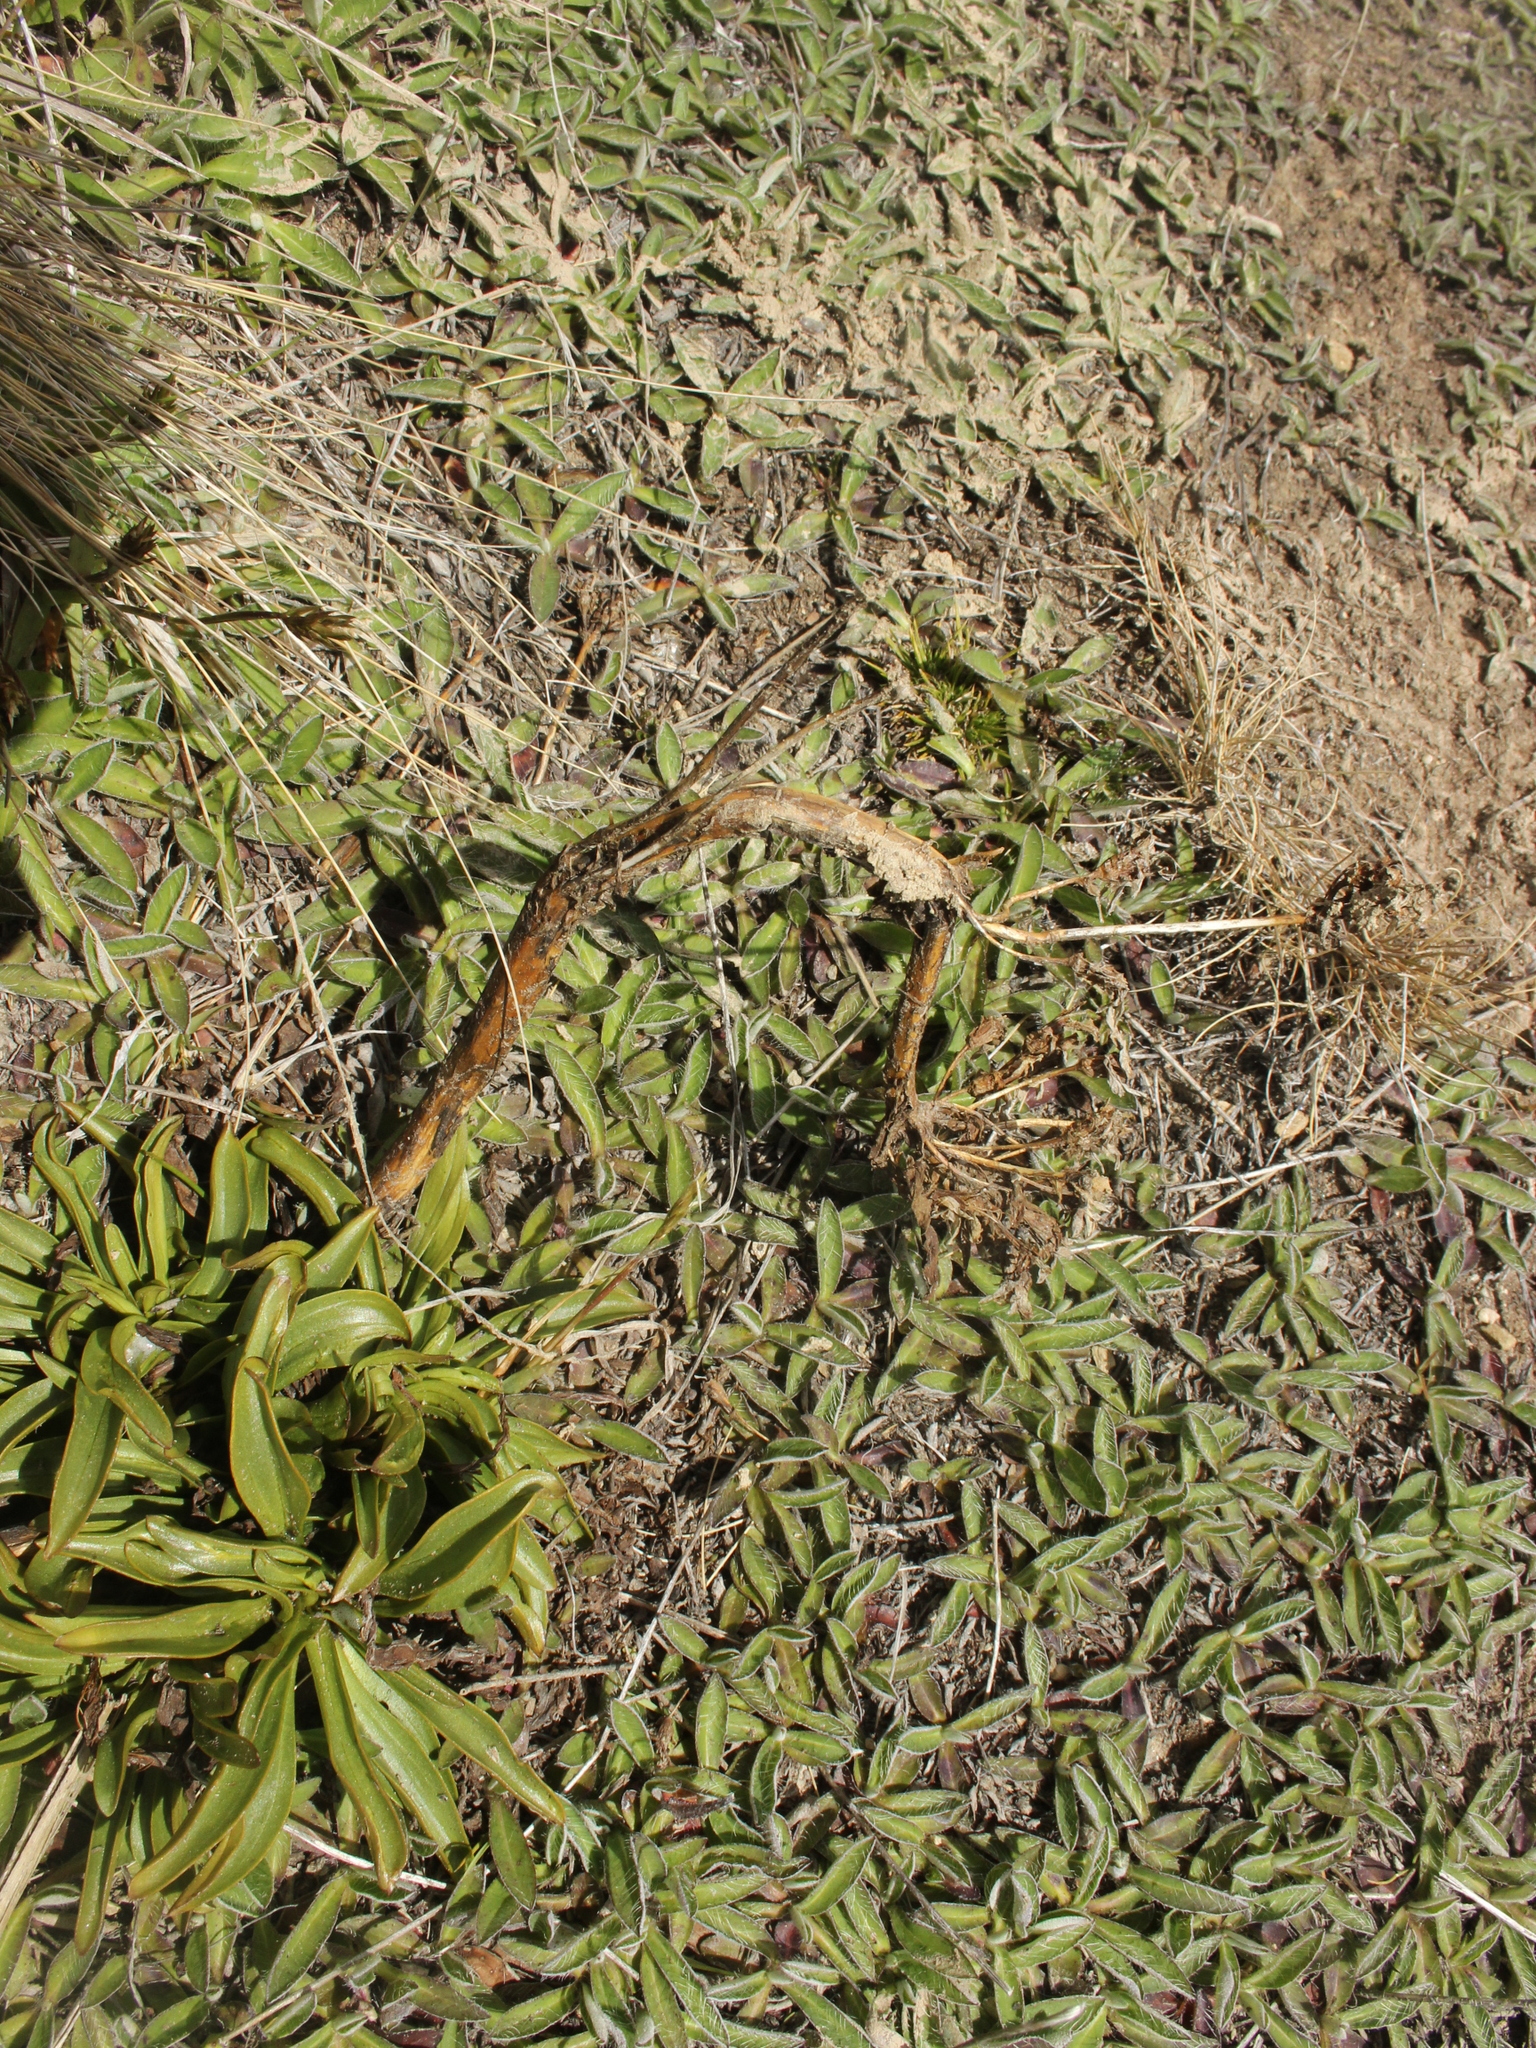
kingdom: Plantae
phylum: Tracheophyta
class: Magnoliopsida
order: Gentianales
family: Gentianaceae
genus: Gentianella
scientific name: Gentianella bellidifolia
